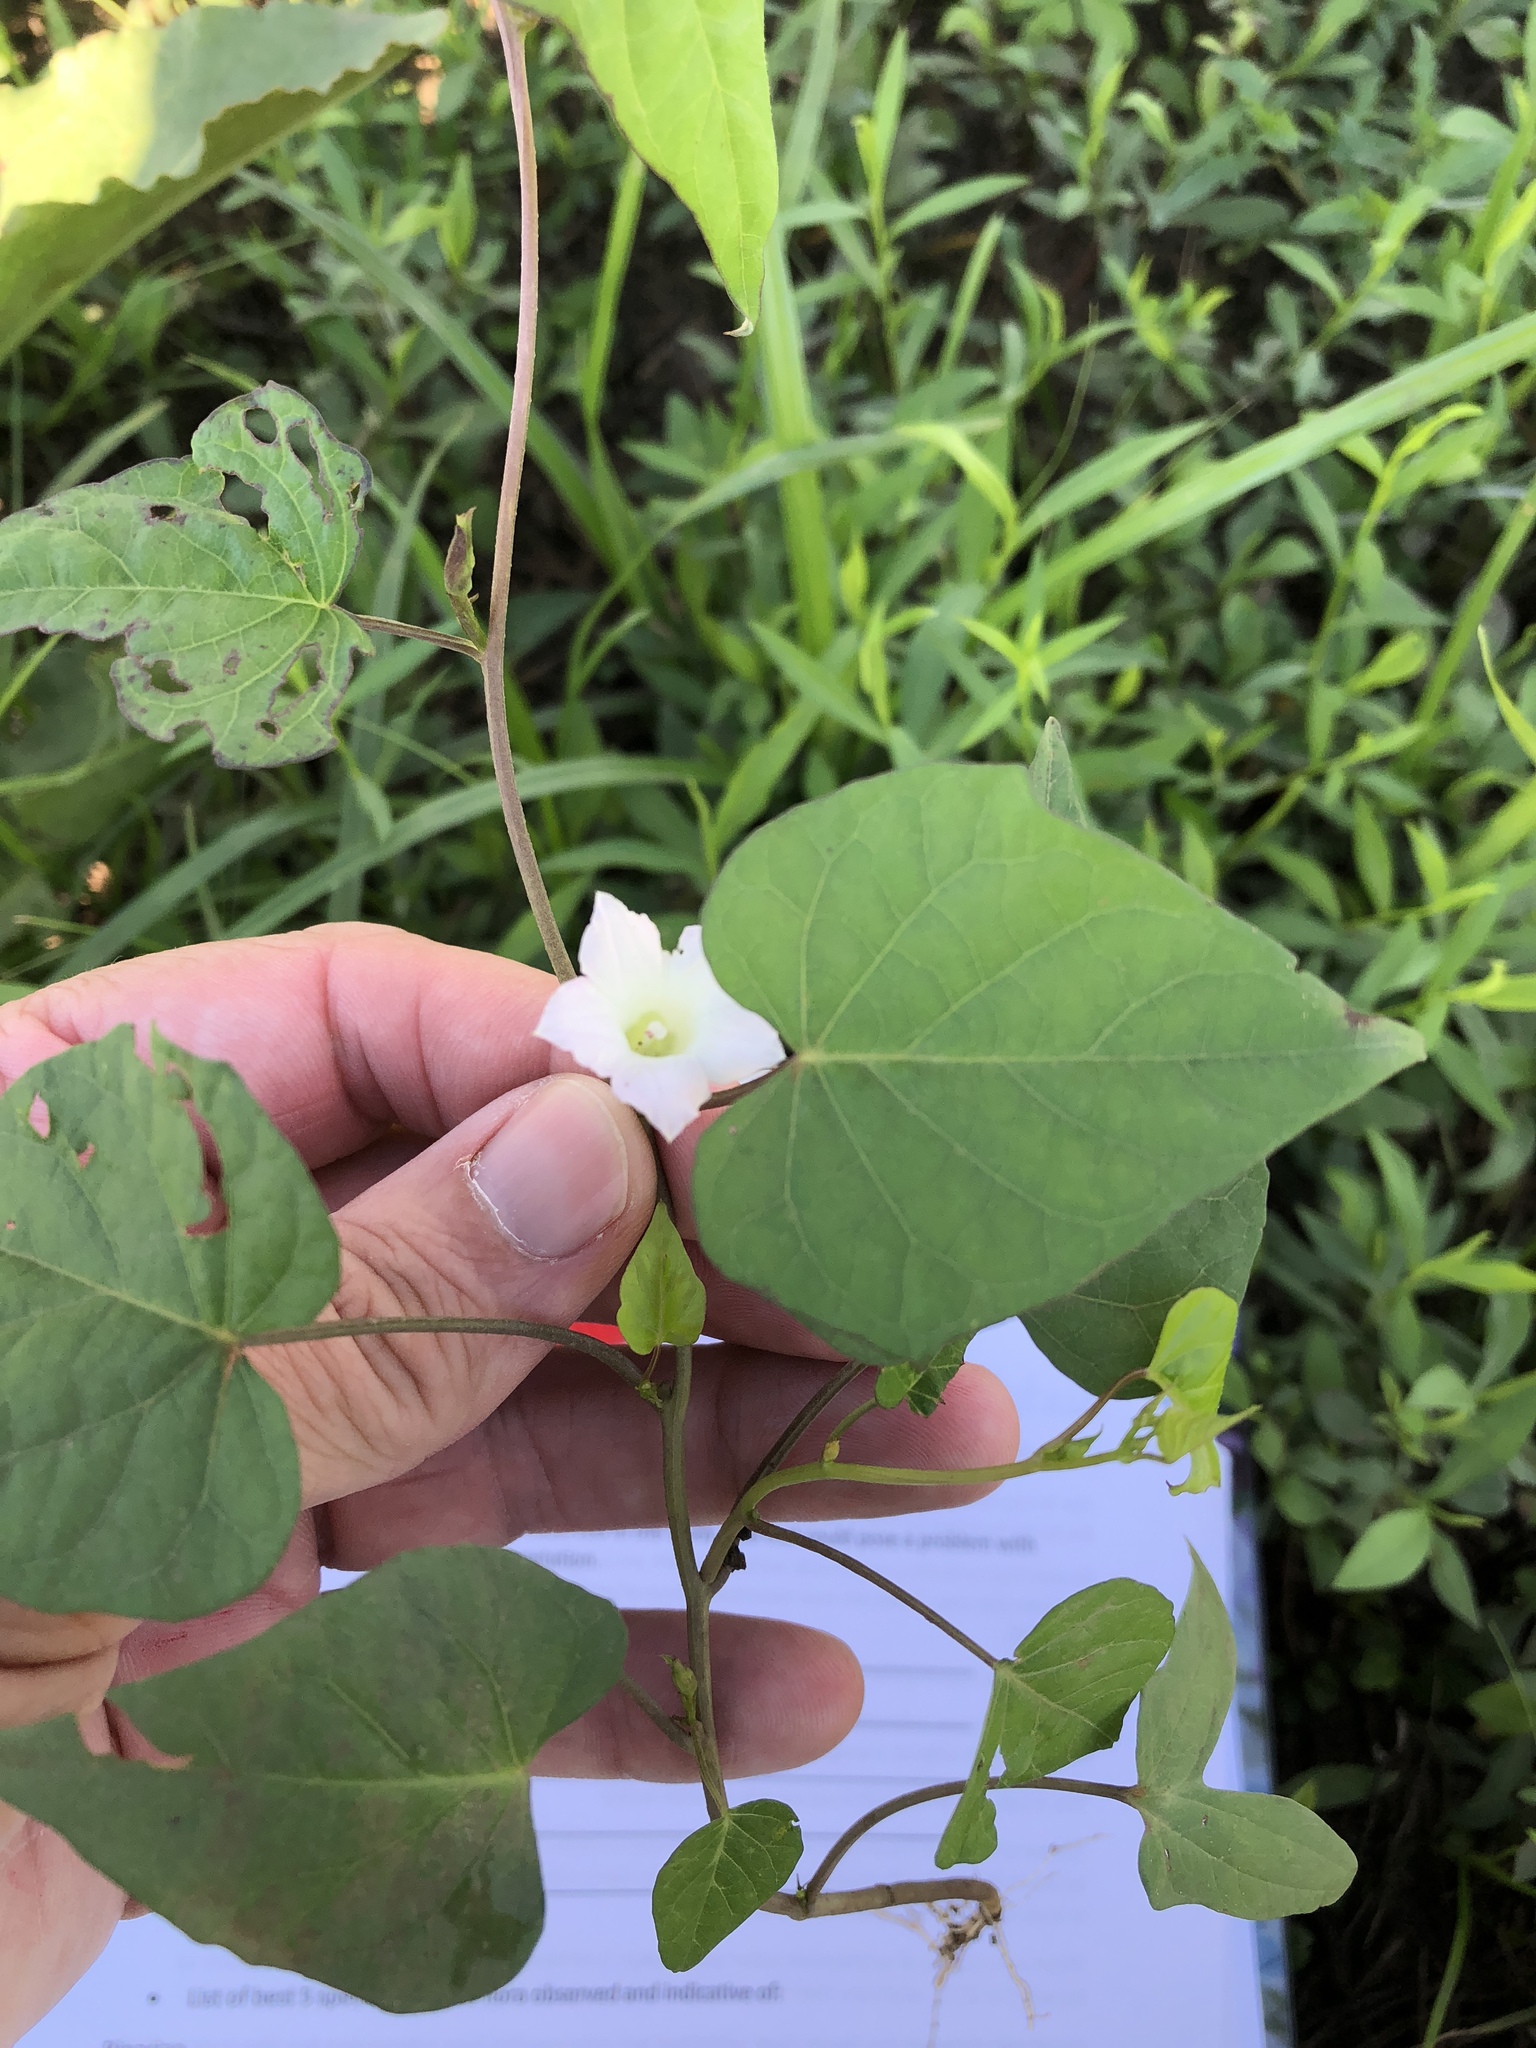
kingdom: Plantae
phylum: Tracheophyta
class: Magnoliopsida
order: Solanales
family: Convolvulaceae
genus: Ipomoea
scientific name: Ipomoea lacunosa
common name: White morning-glory
